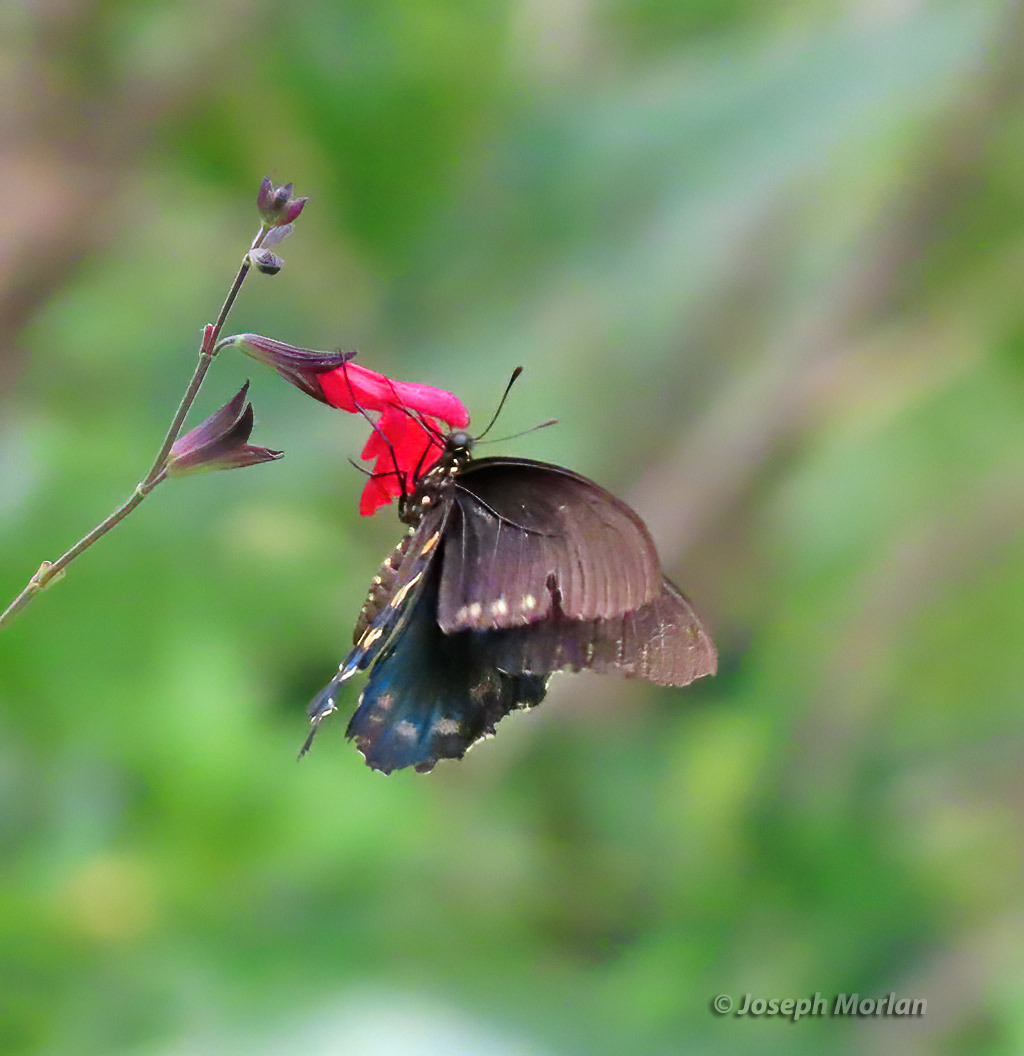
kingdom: Animalia
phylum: Arthropoda
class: Insecta
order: Lepidoptera
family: Papilionidae
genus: Battus
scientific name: Battus philenor
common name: Pipevine swallowtail
